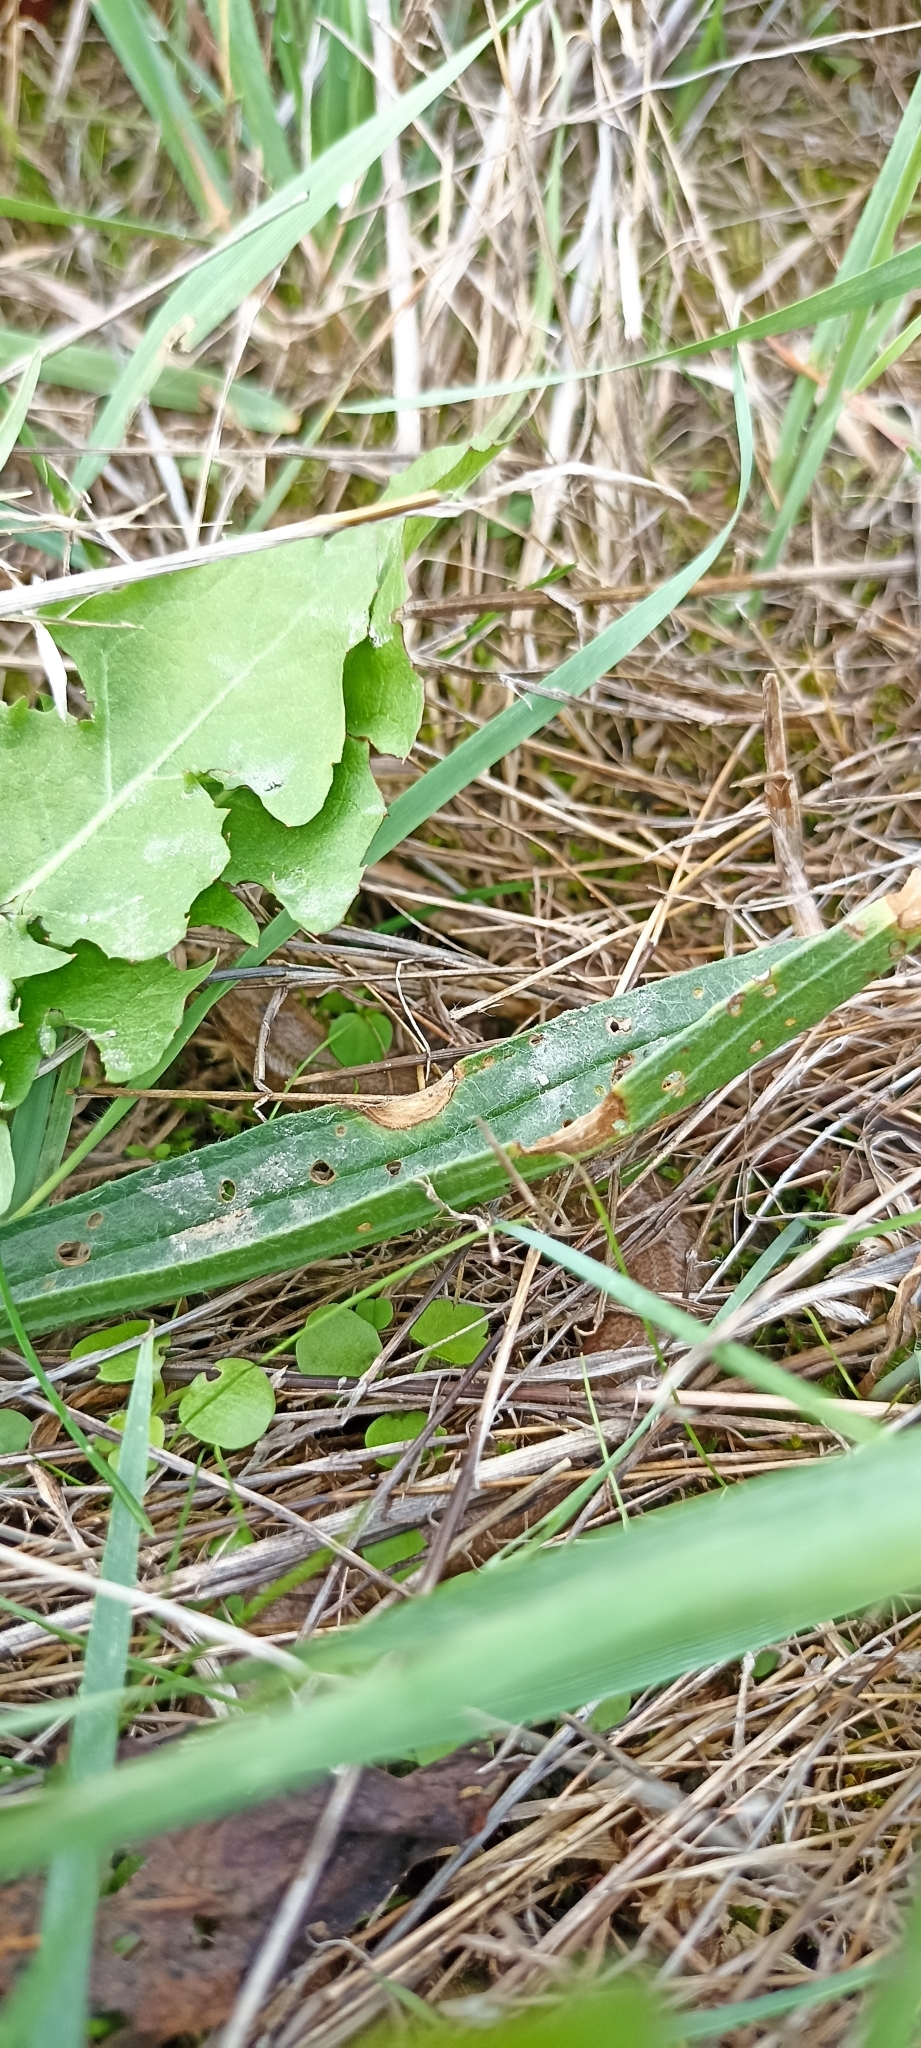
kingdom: Animalia
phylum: Chordata
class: Squamata
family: Anguidae
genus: Anguis
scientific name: Anguis fragilis
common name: Slow worm
